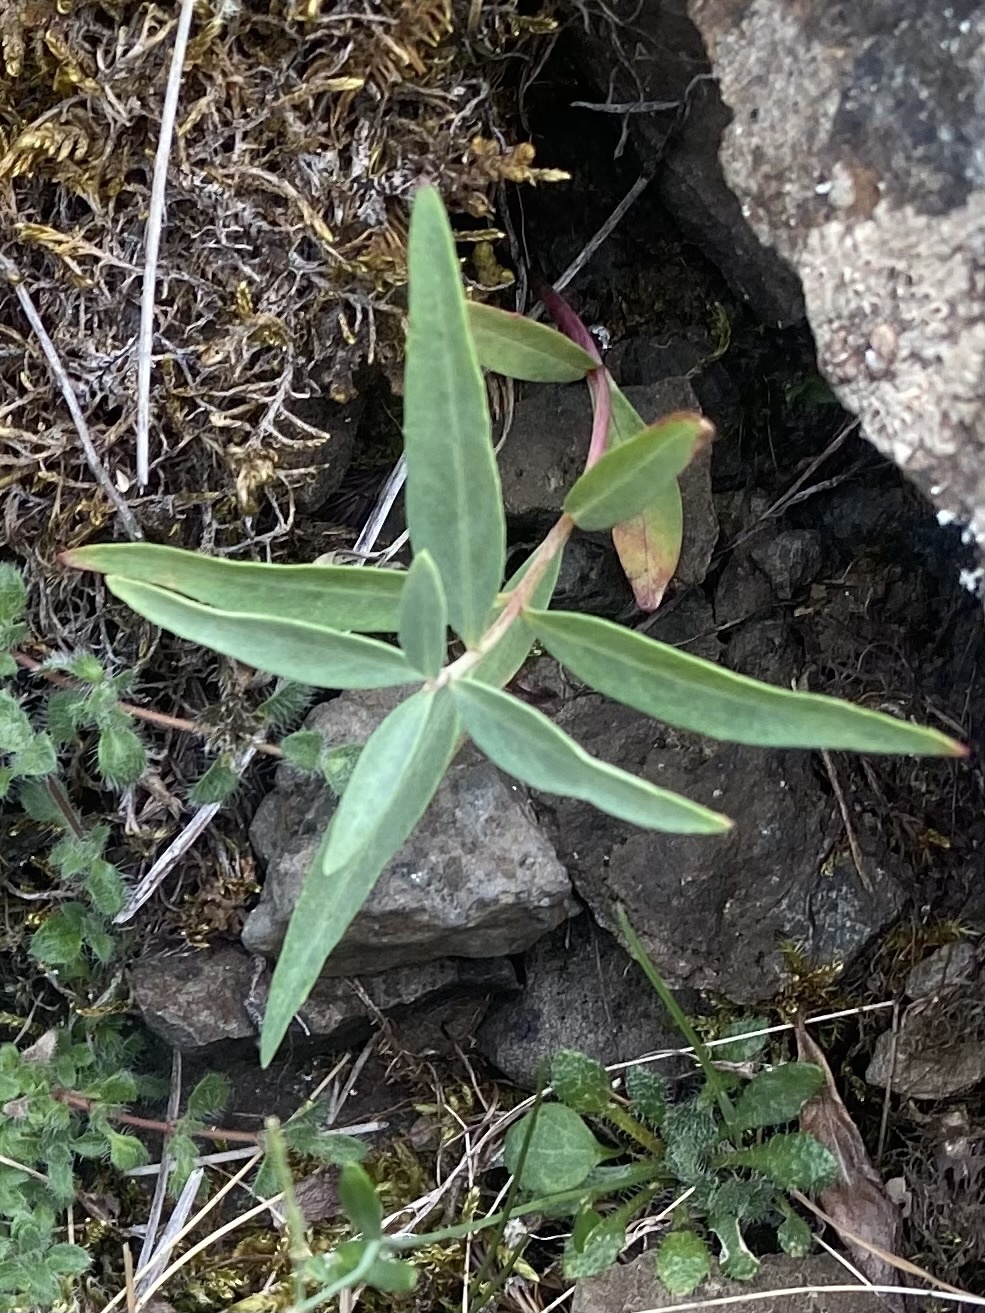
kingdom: Plantae
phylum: Tracheophyta
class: Magnoliopsida
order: Myrtales
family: Onagraceae
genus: Chamaenerion
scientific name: Chamaenerion latifolium
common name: Dwarf fireweed
